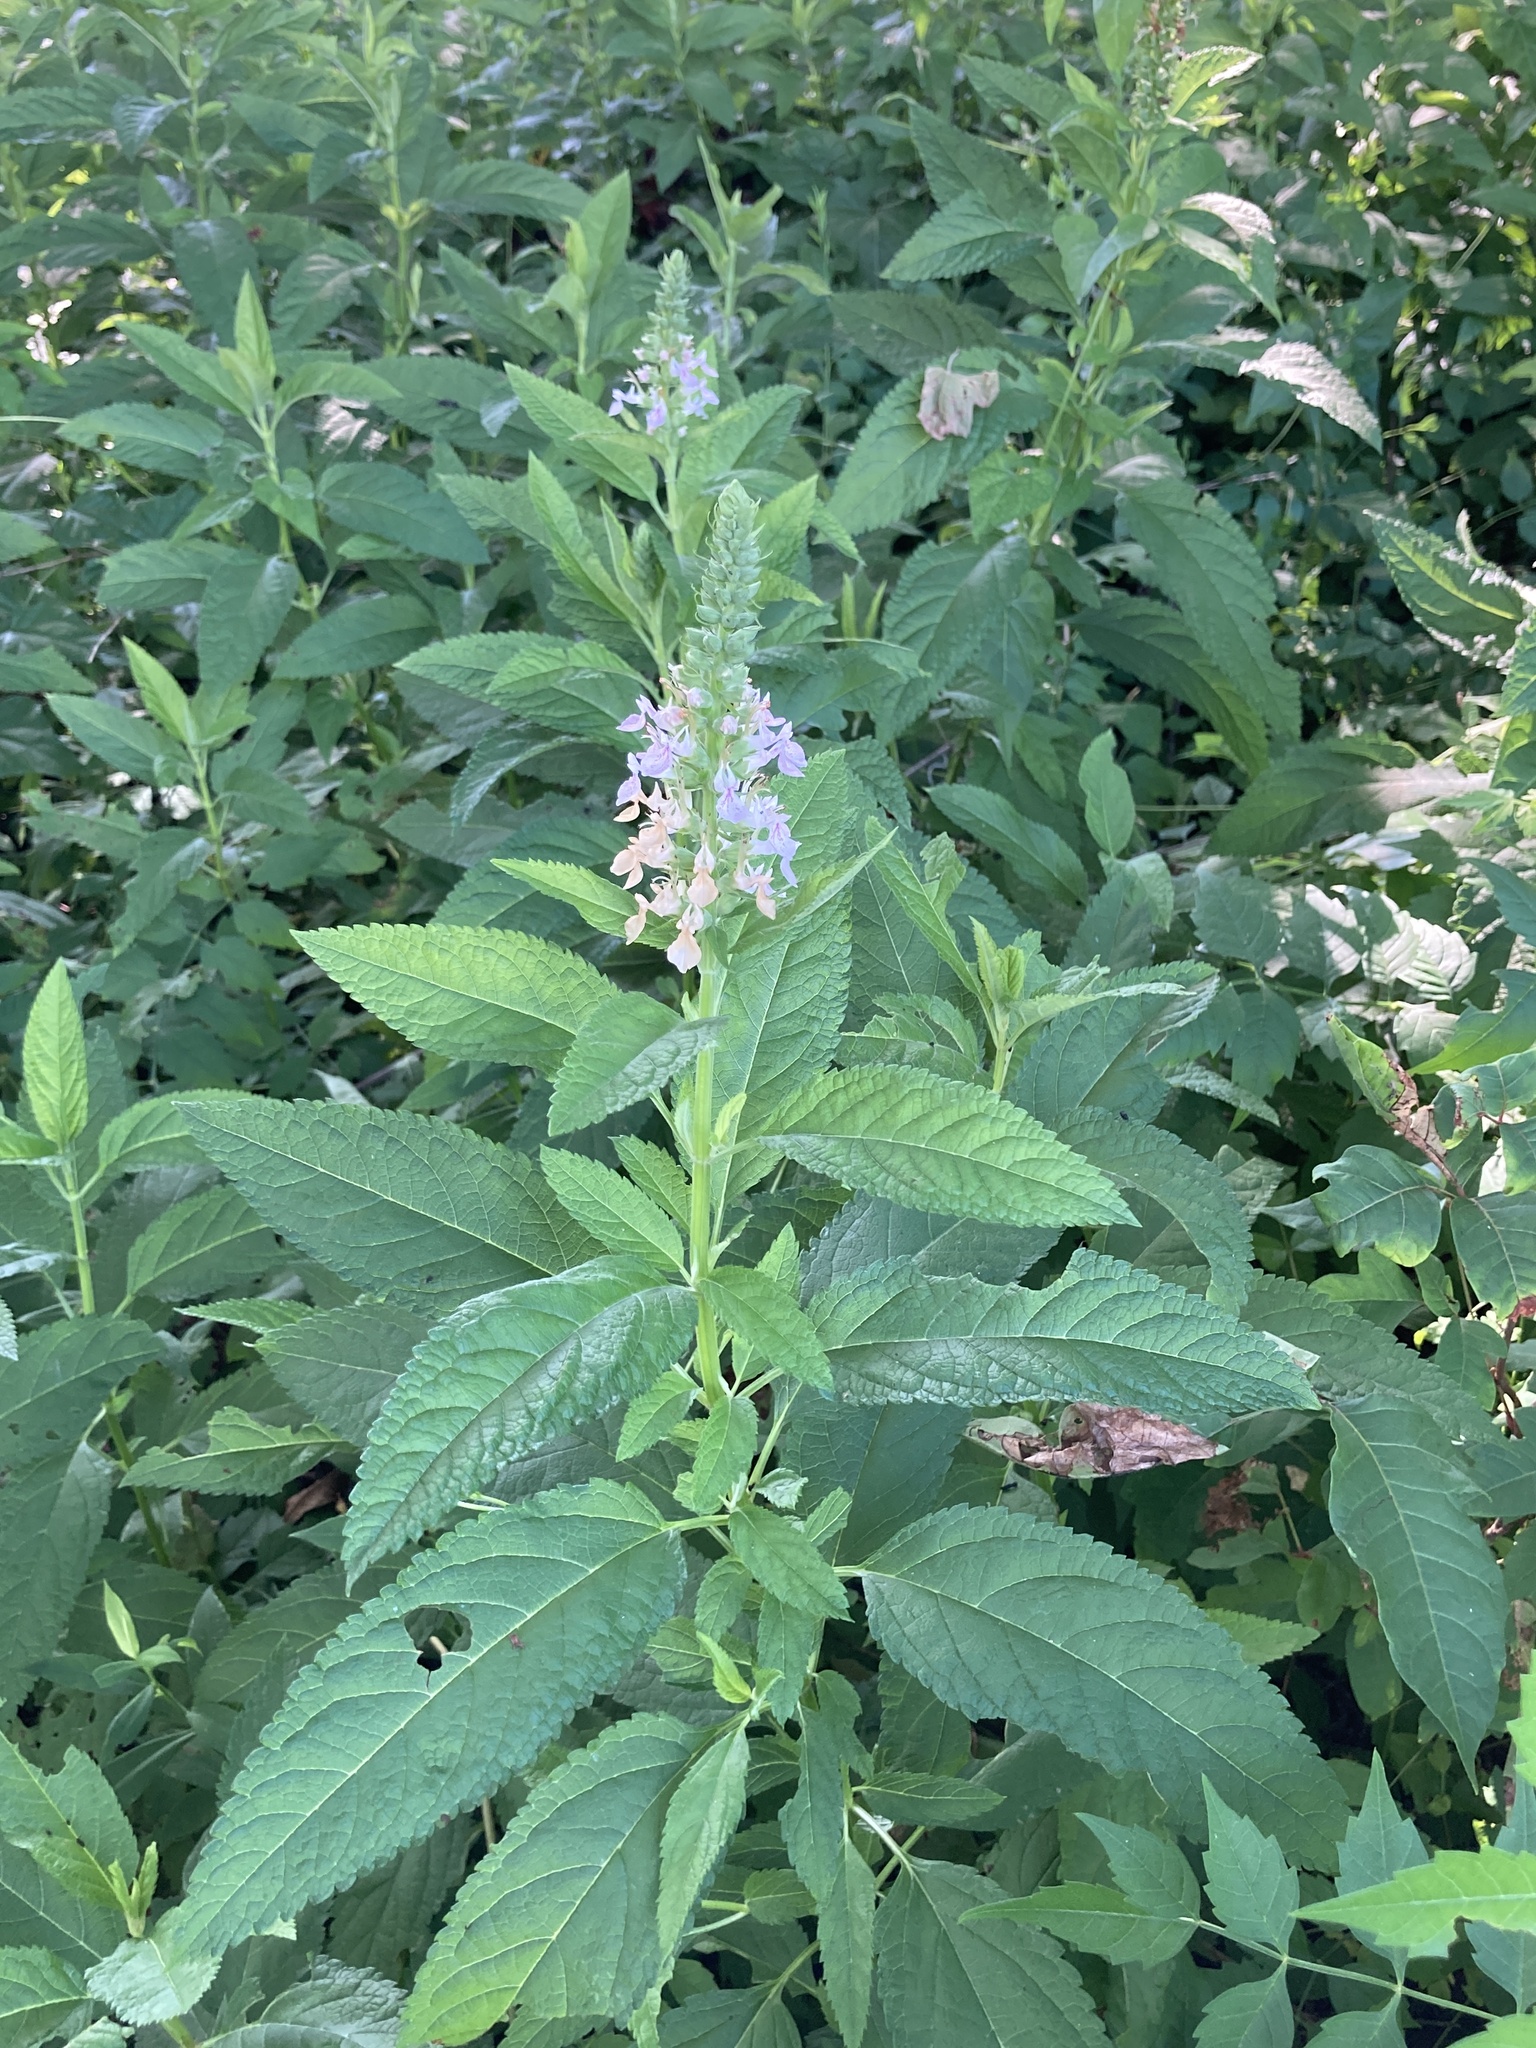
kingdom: Plantae
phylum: Tracheophyta
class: Magnoliopsida
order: Lamiales
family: Lamiaceae
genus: Teucrium
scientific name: Teucrium canadense
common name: American germander
